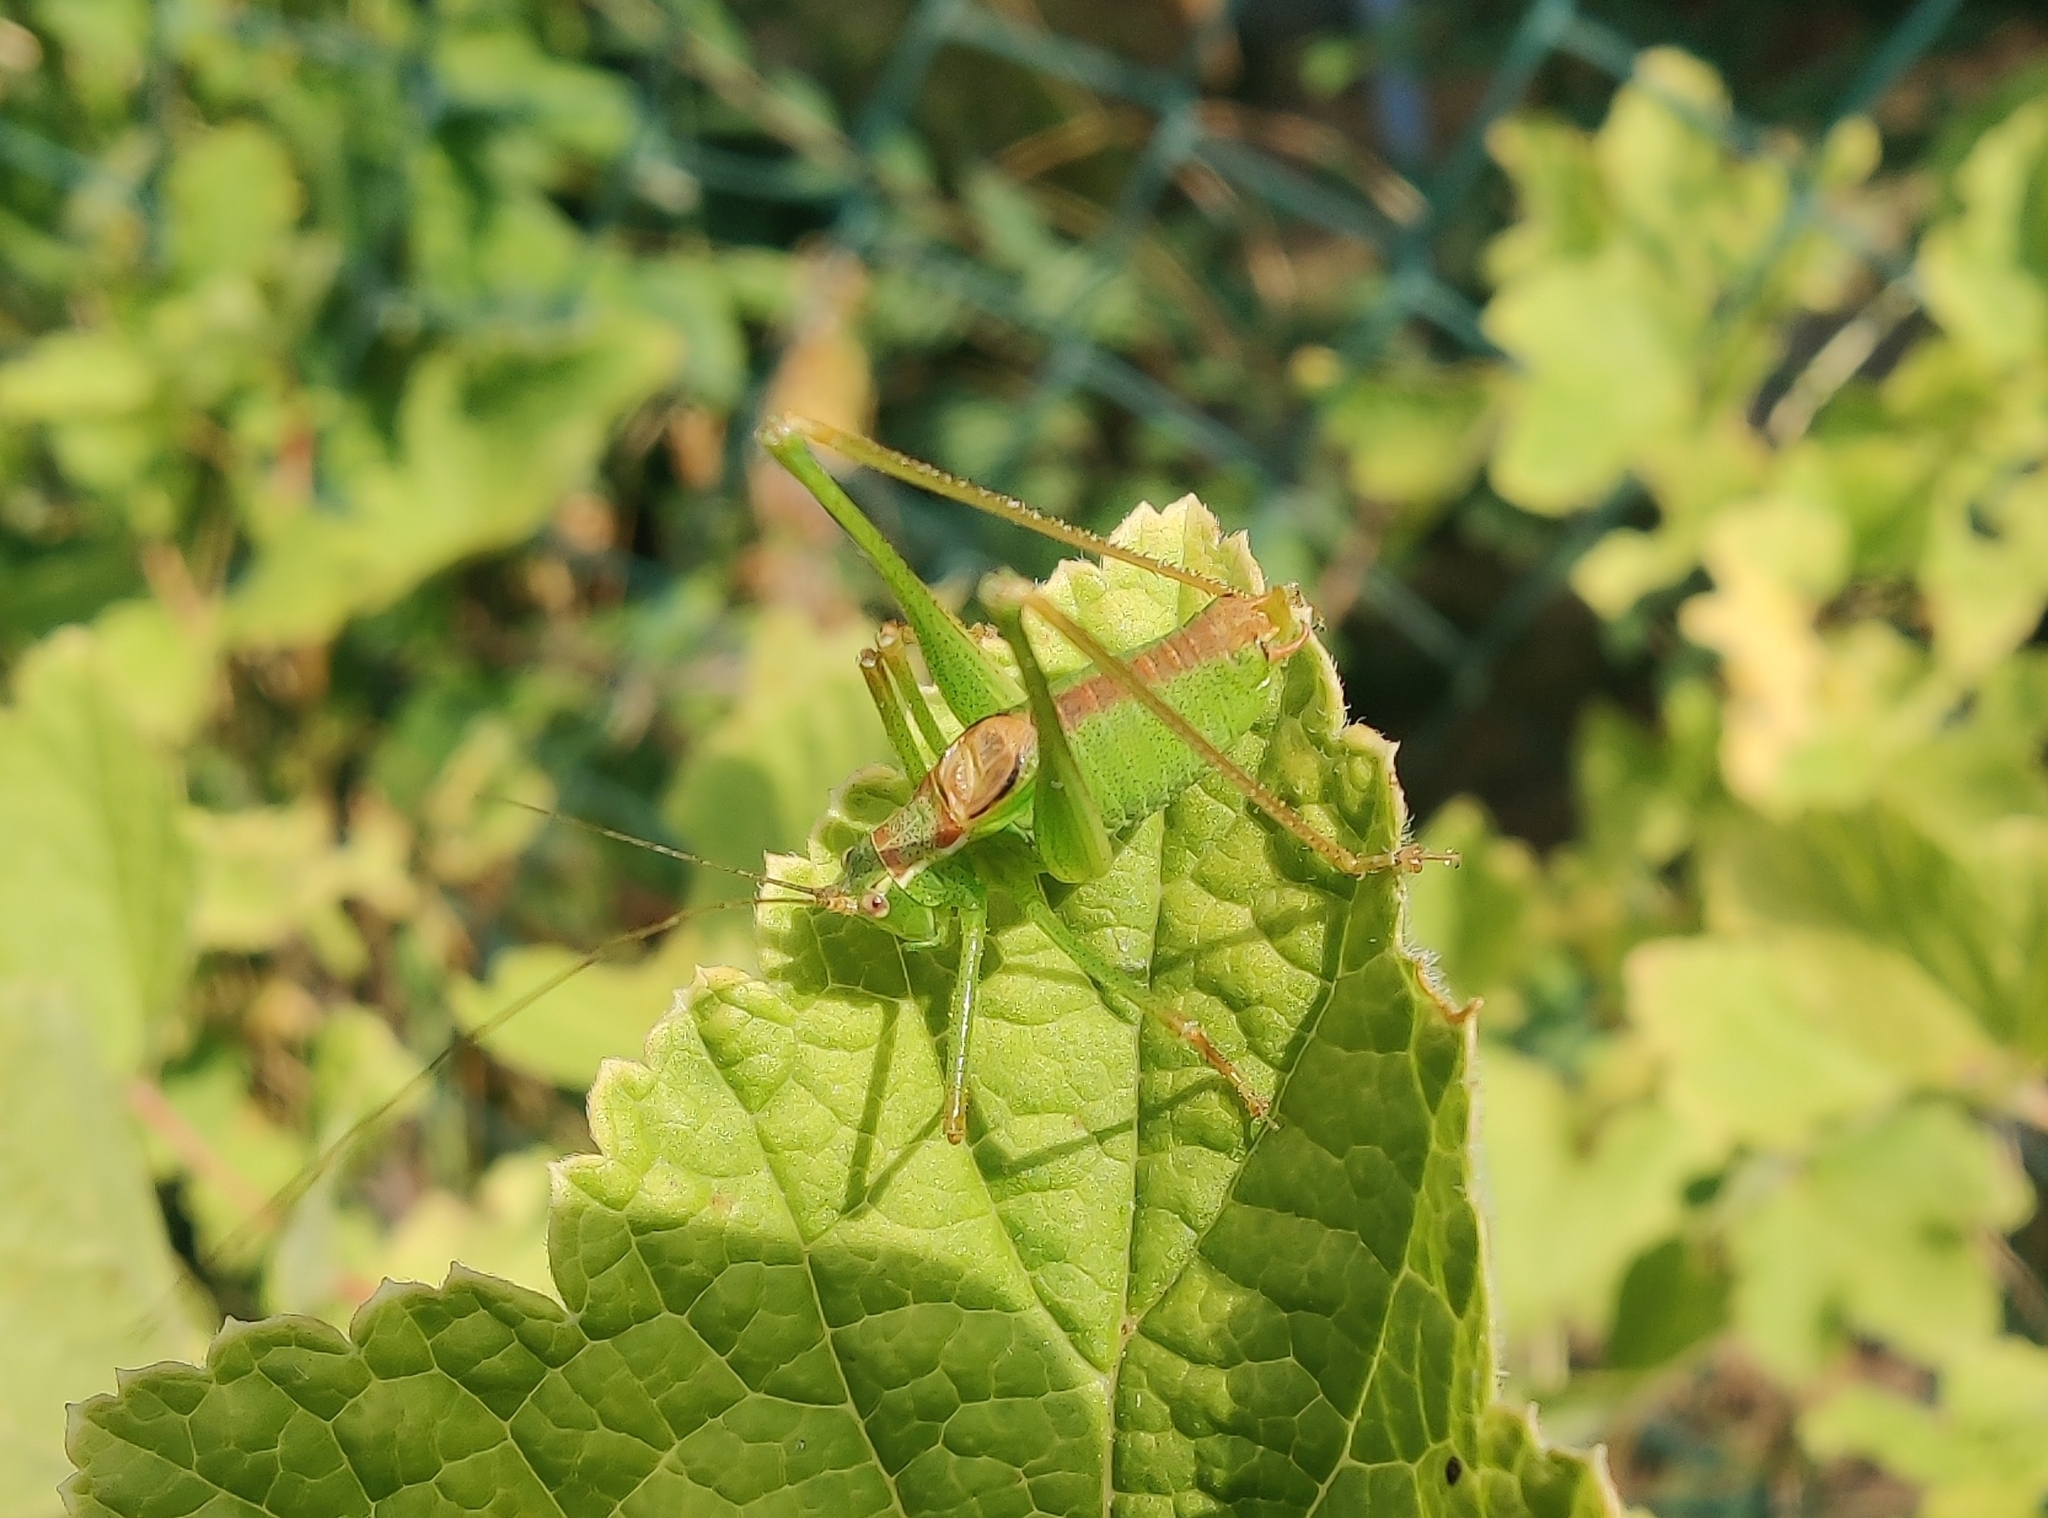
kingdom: Animalia
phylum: Arthropoda
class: Insecta
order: Orthoptera
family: Tettigoniidae
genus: Leptophyes
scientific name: Leptophyes punctatissima
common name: Speckled bush-cricket
